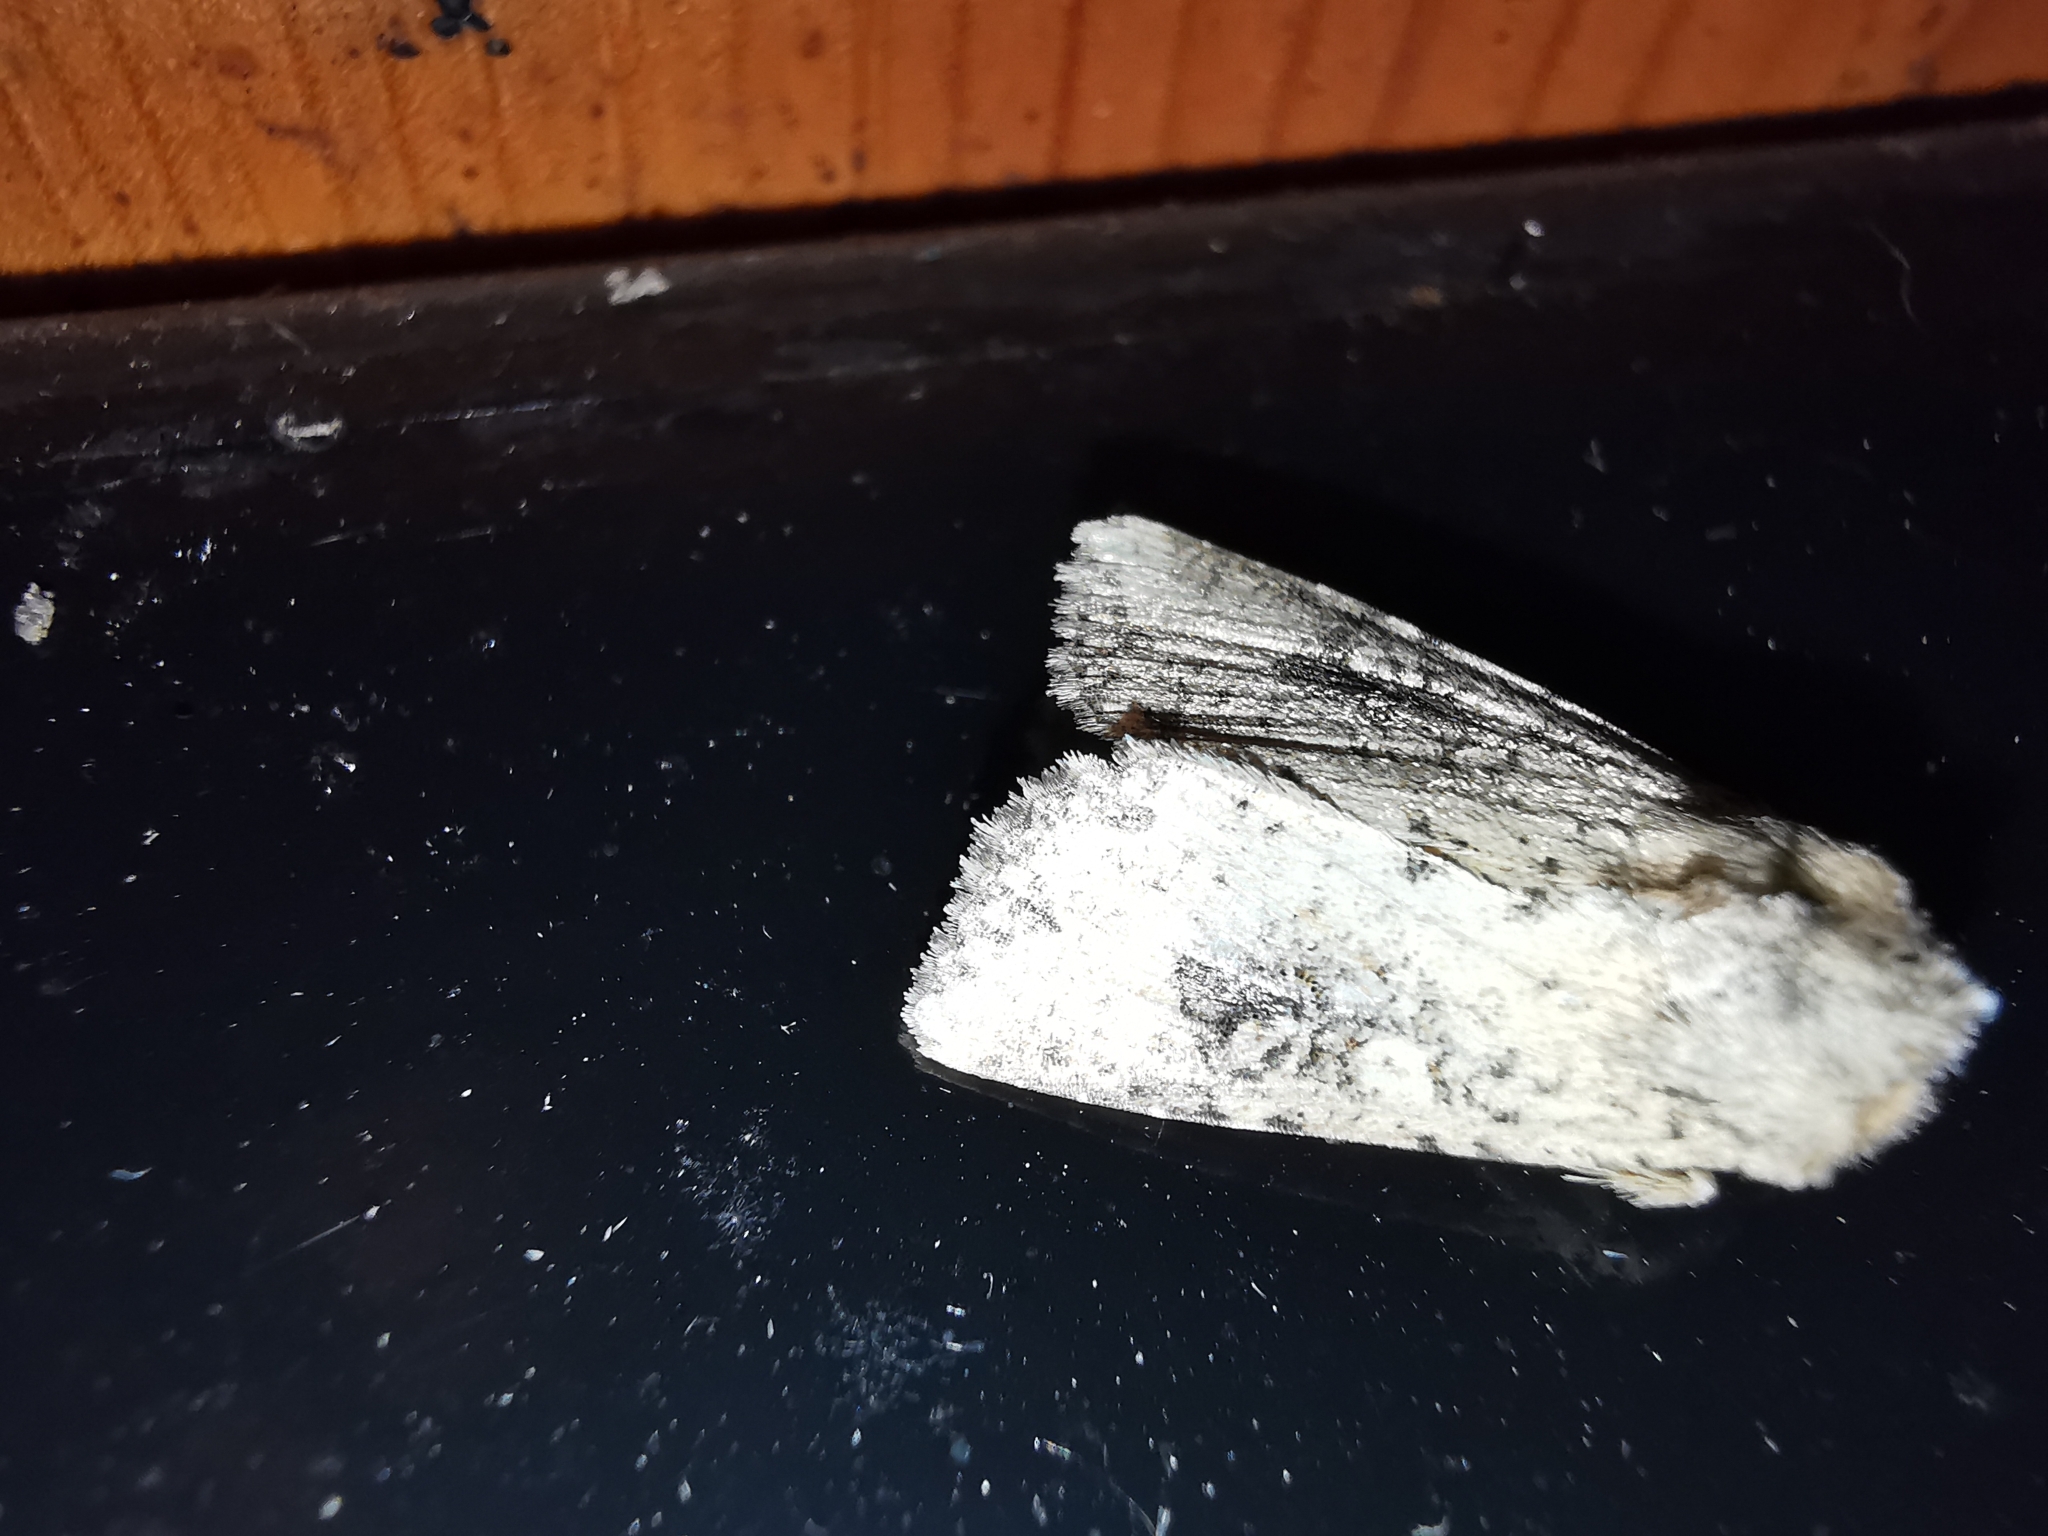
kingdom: Animalia
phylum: Arthropoda
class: Insecta
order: Lepidoptera
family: Noctuidae
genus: Mythimna
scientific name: Mythimna languida
